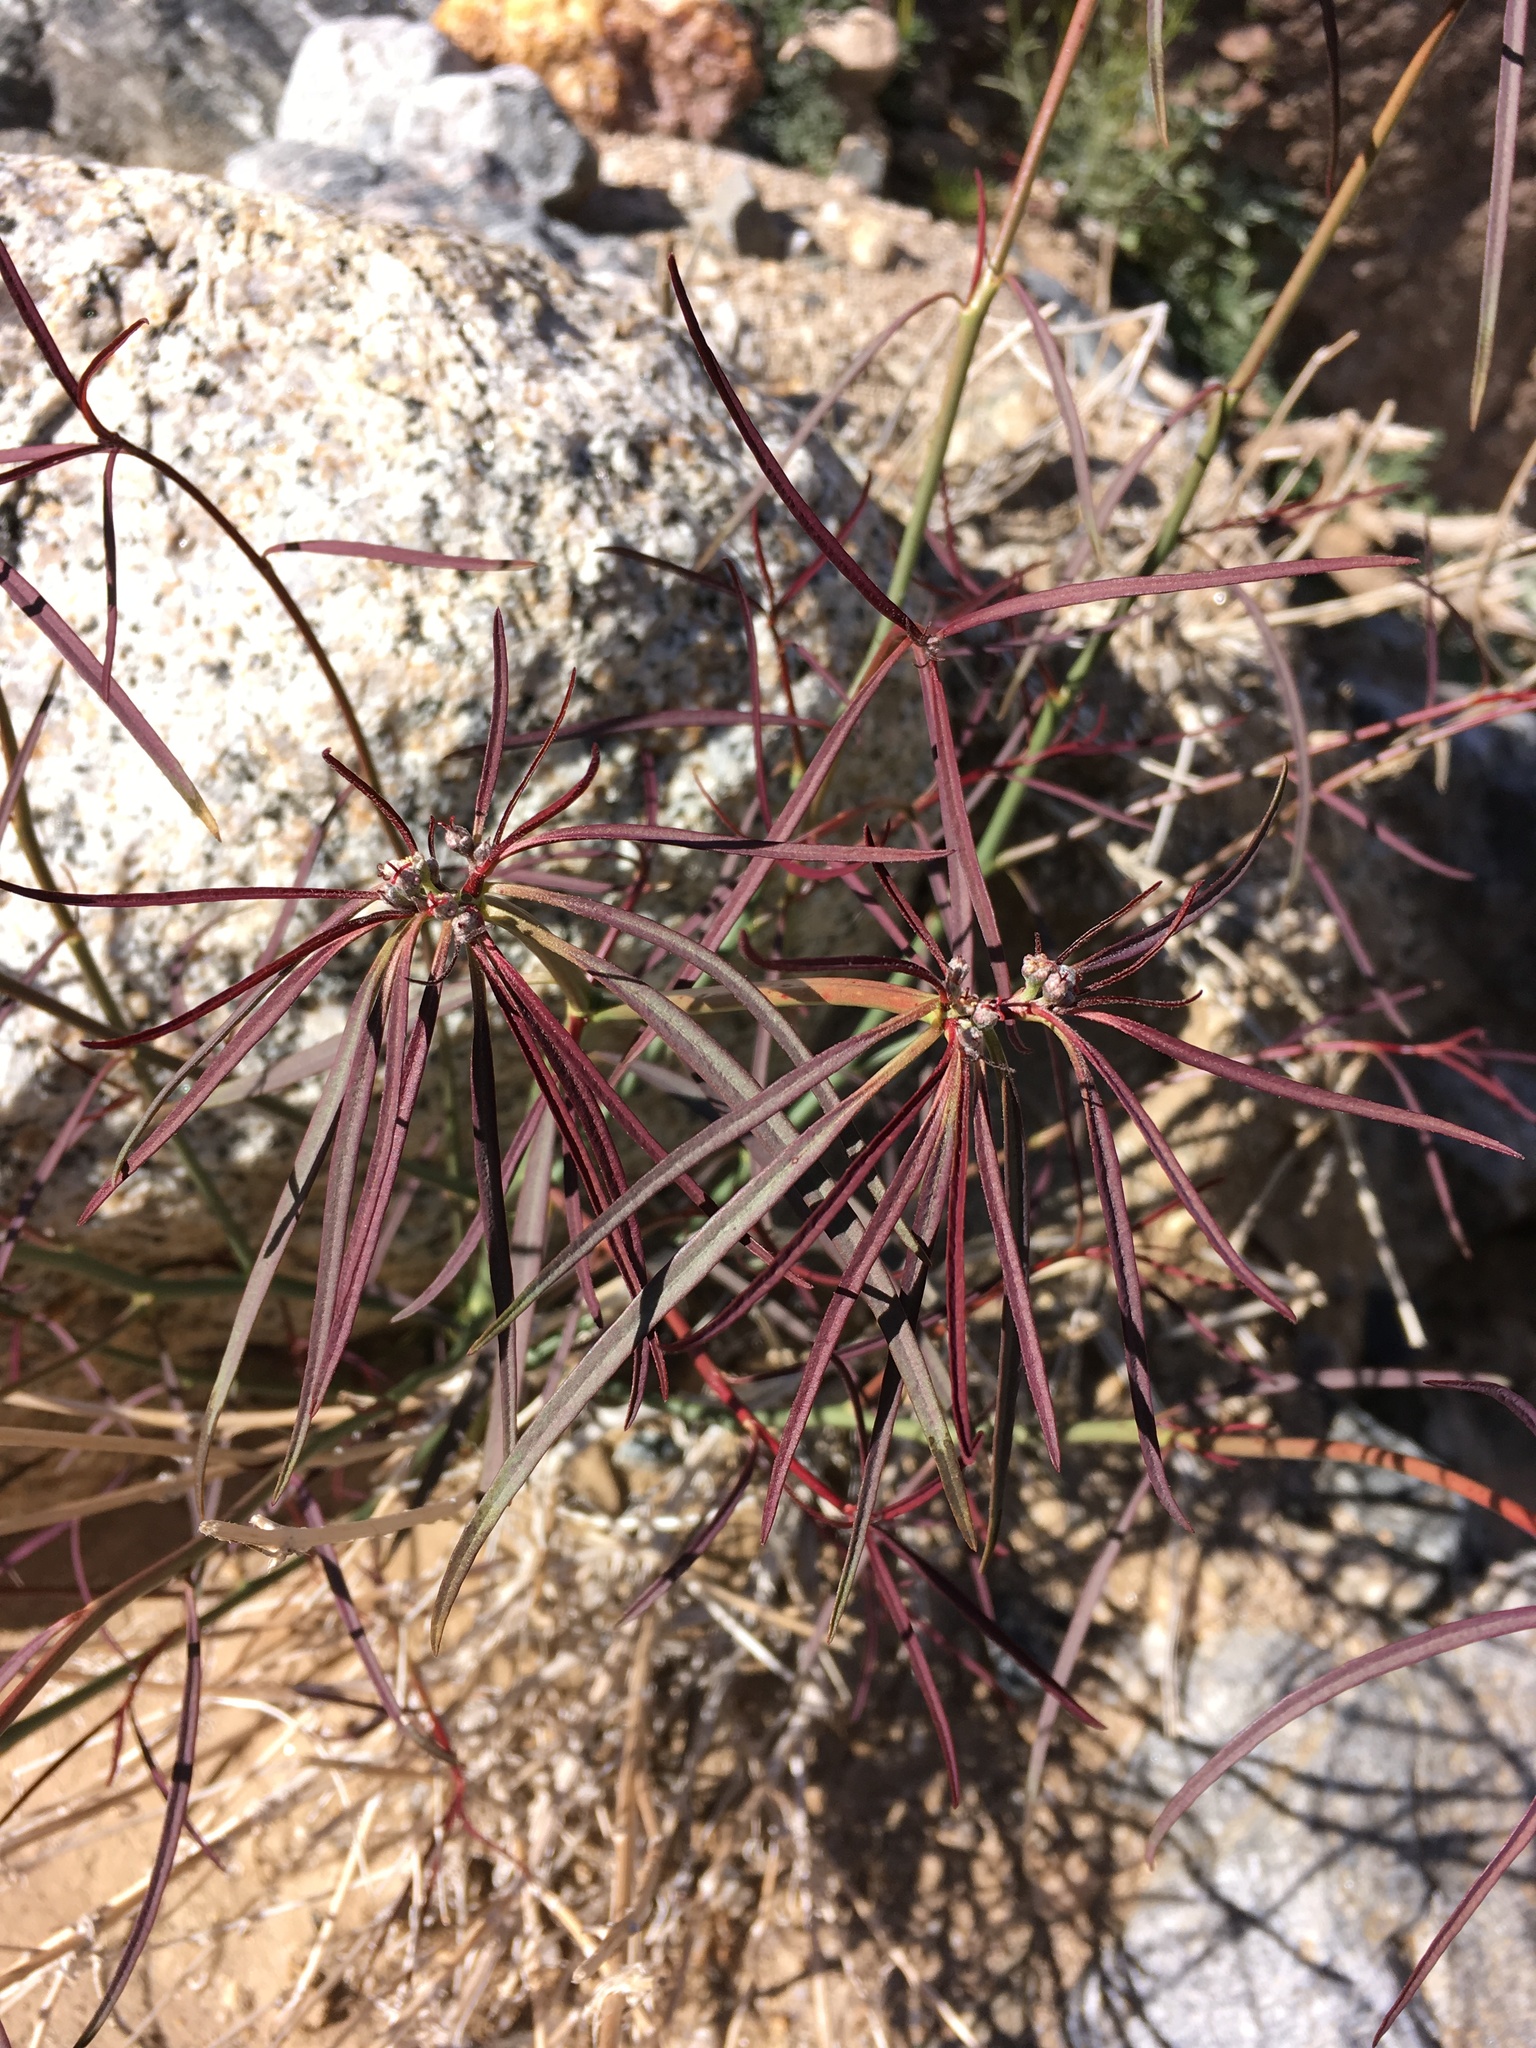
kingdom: Plantae
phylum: Tracheophyta
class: Magnoliopsida
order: Malpighiales
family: Euphorbiaceae
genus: Euphorbia
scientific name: Euphorbia eriantha
